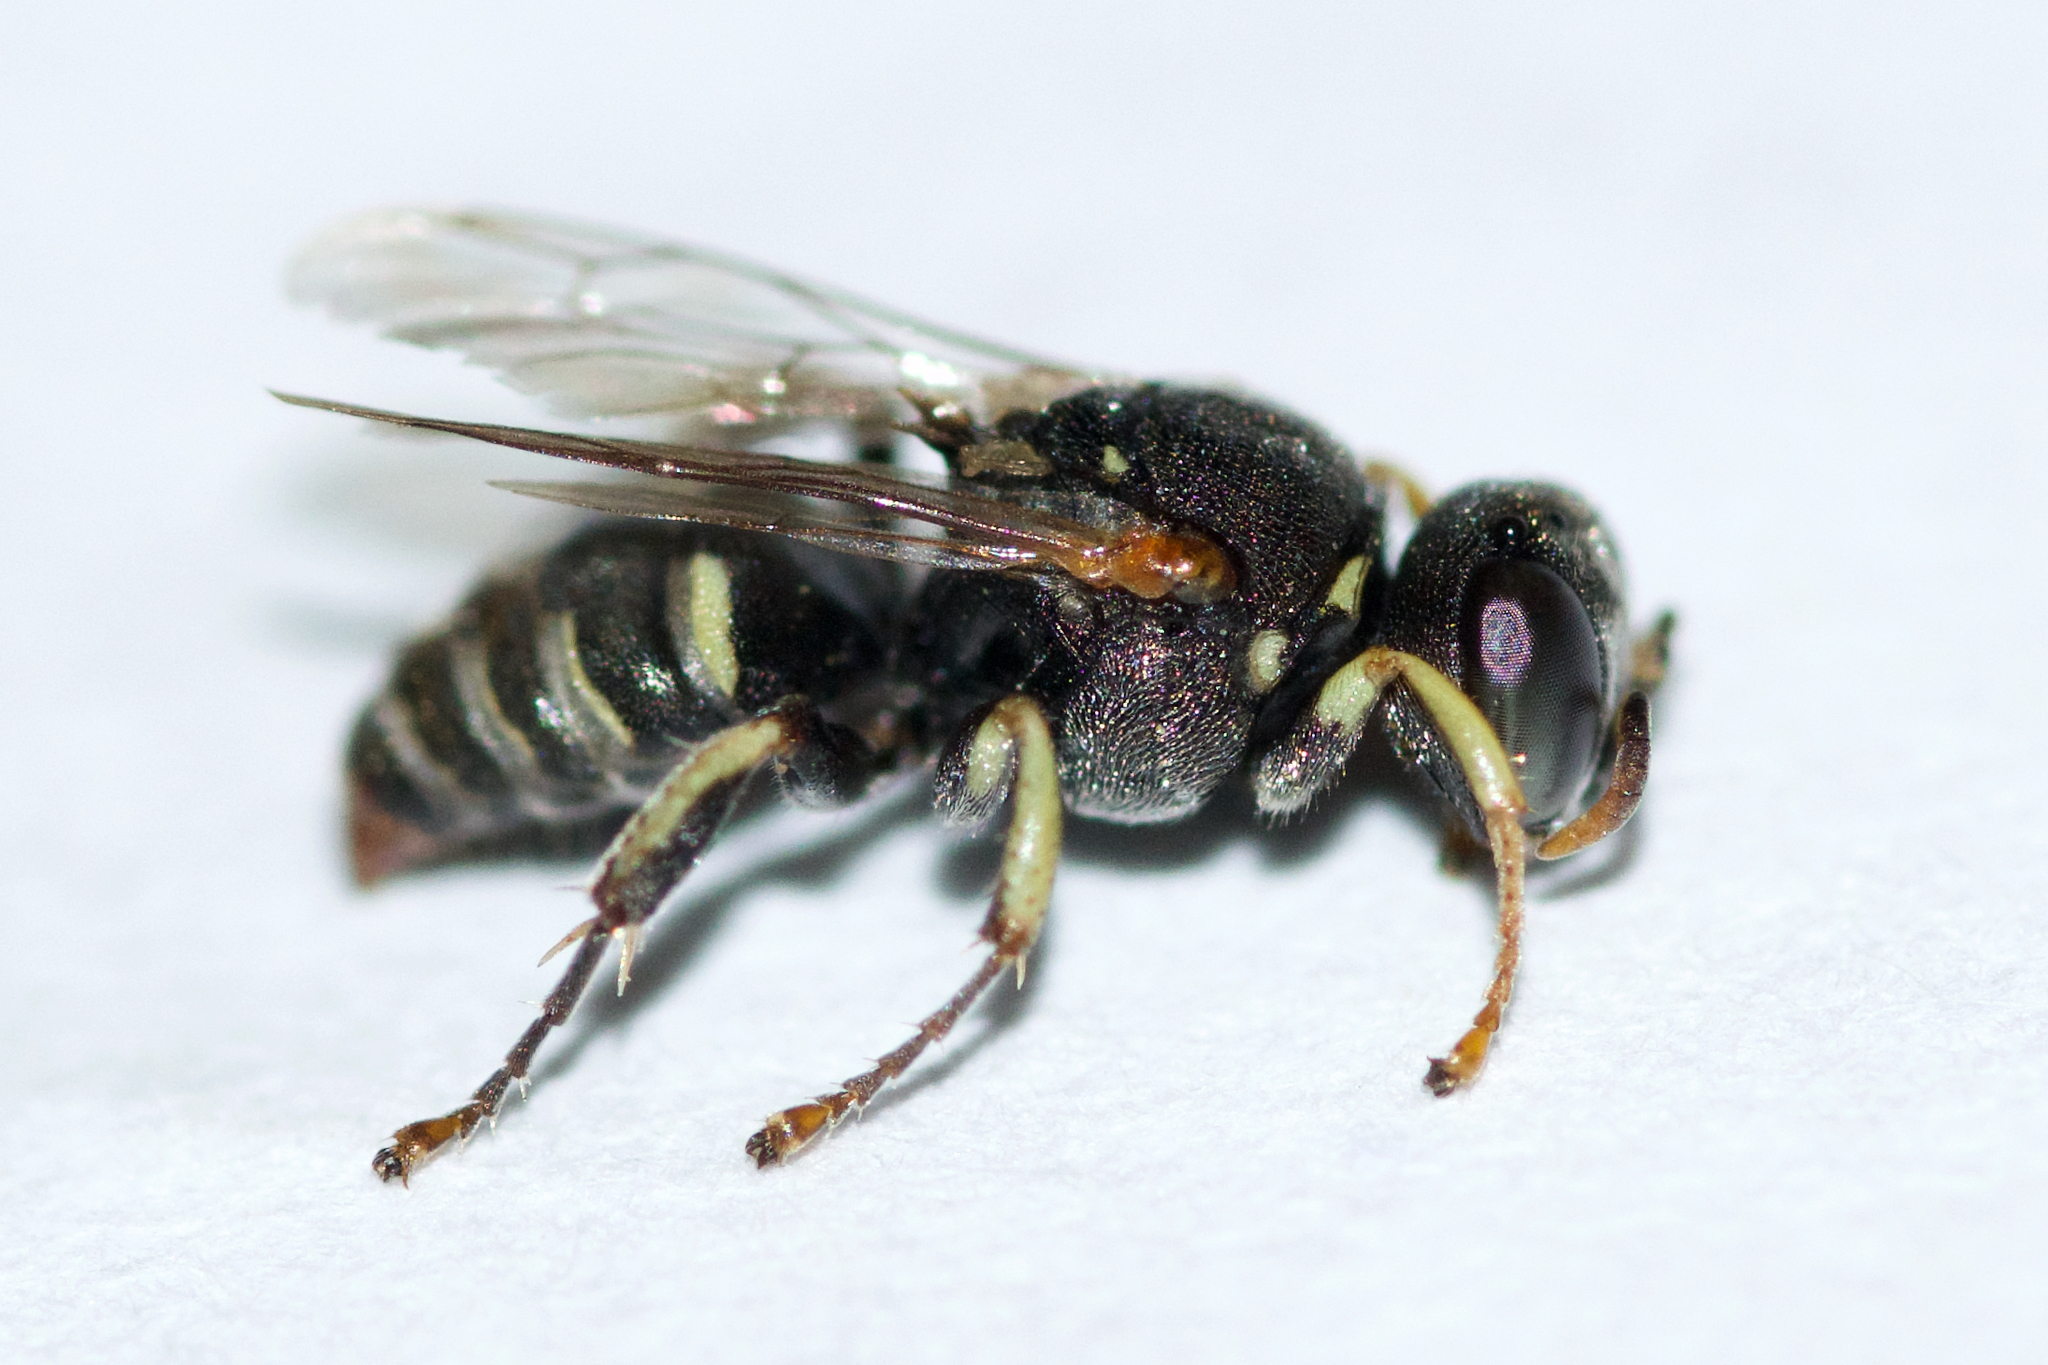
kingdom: Animalia
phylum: Arthropoda
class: Insecta
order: Hymenoptera
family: Crabronidae
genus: Oxybelus
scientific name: Oxybelus emarginatus
